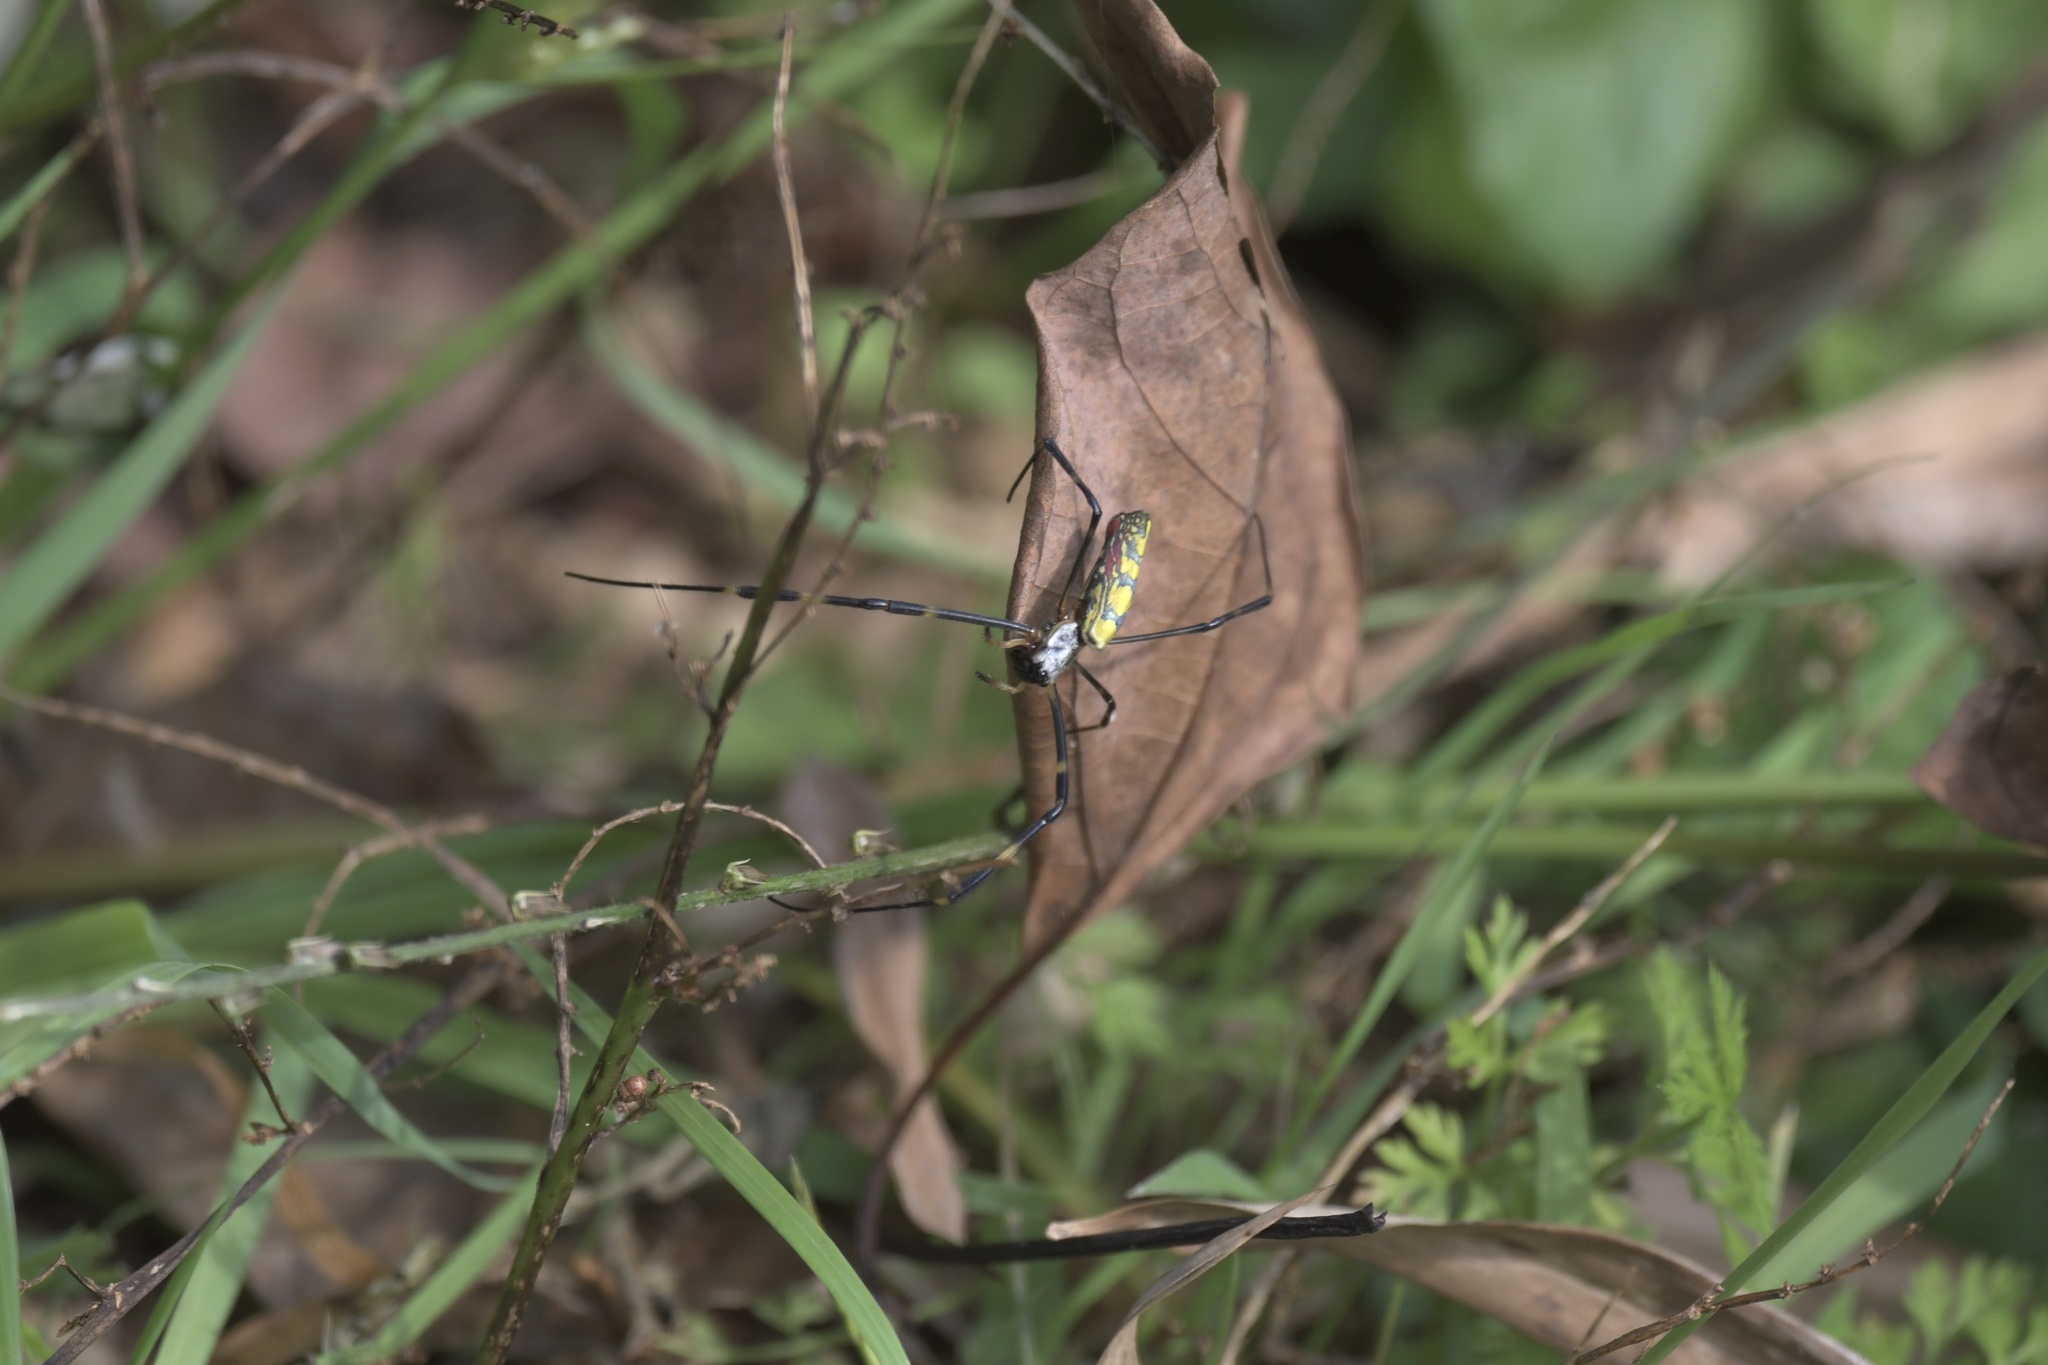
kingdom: Animalia
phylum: Arthropoda
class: Arachnida
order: Araneae
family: Araneidae
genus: Trichonephila
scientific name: Trichonephila clavata
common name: Jorō spider
